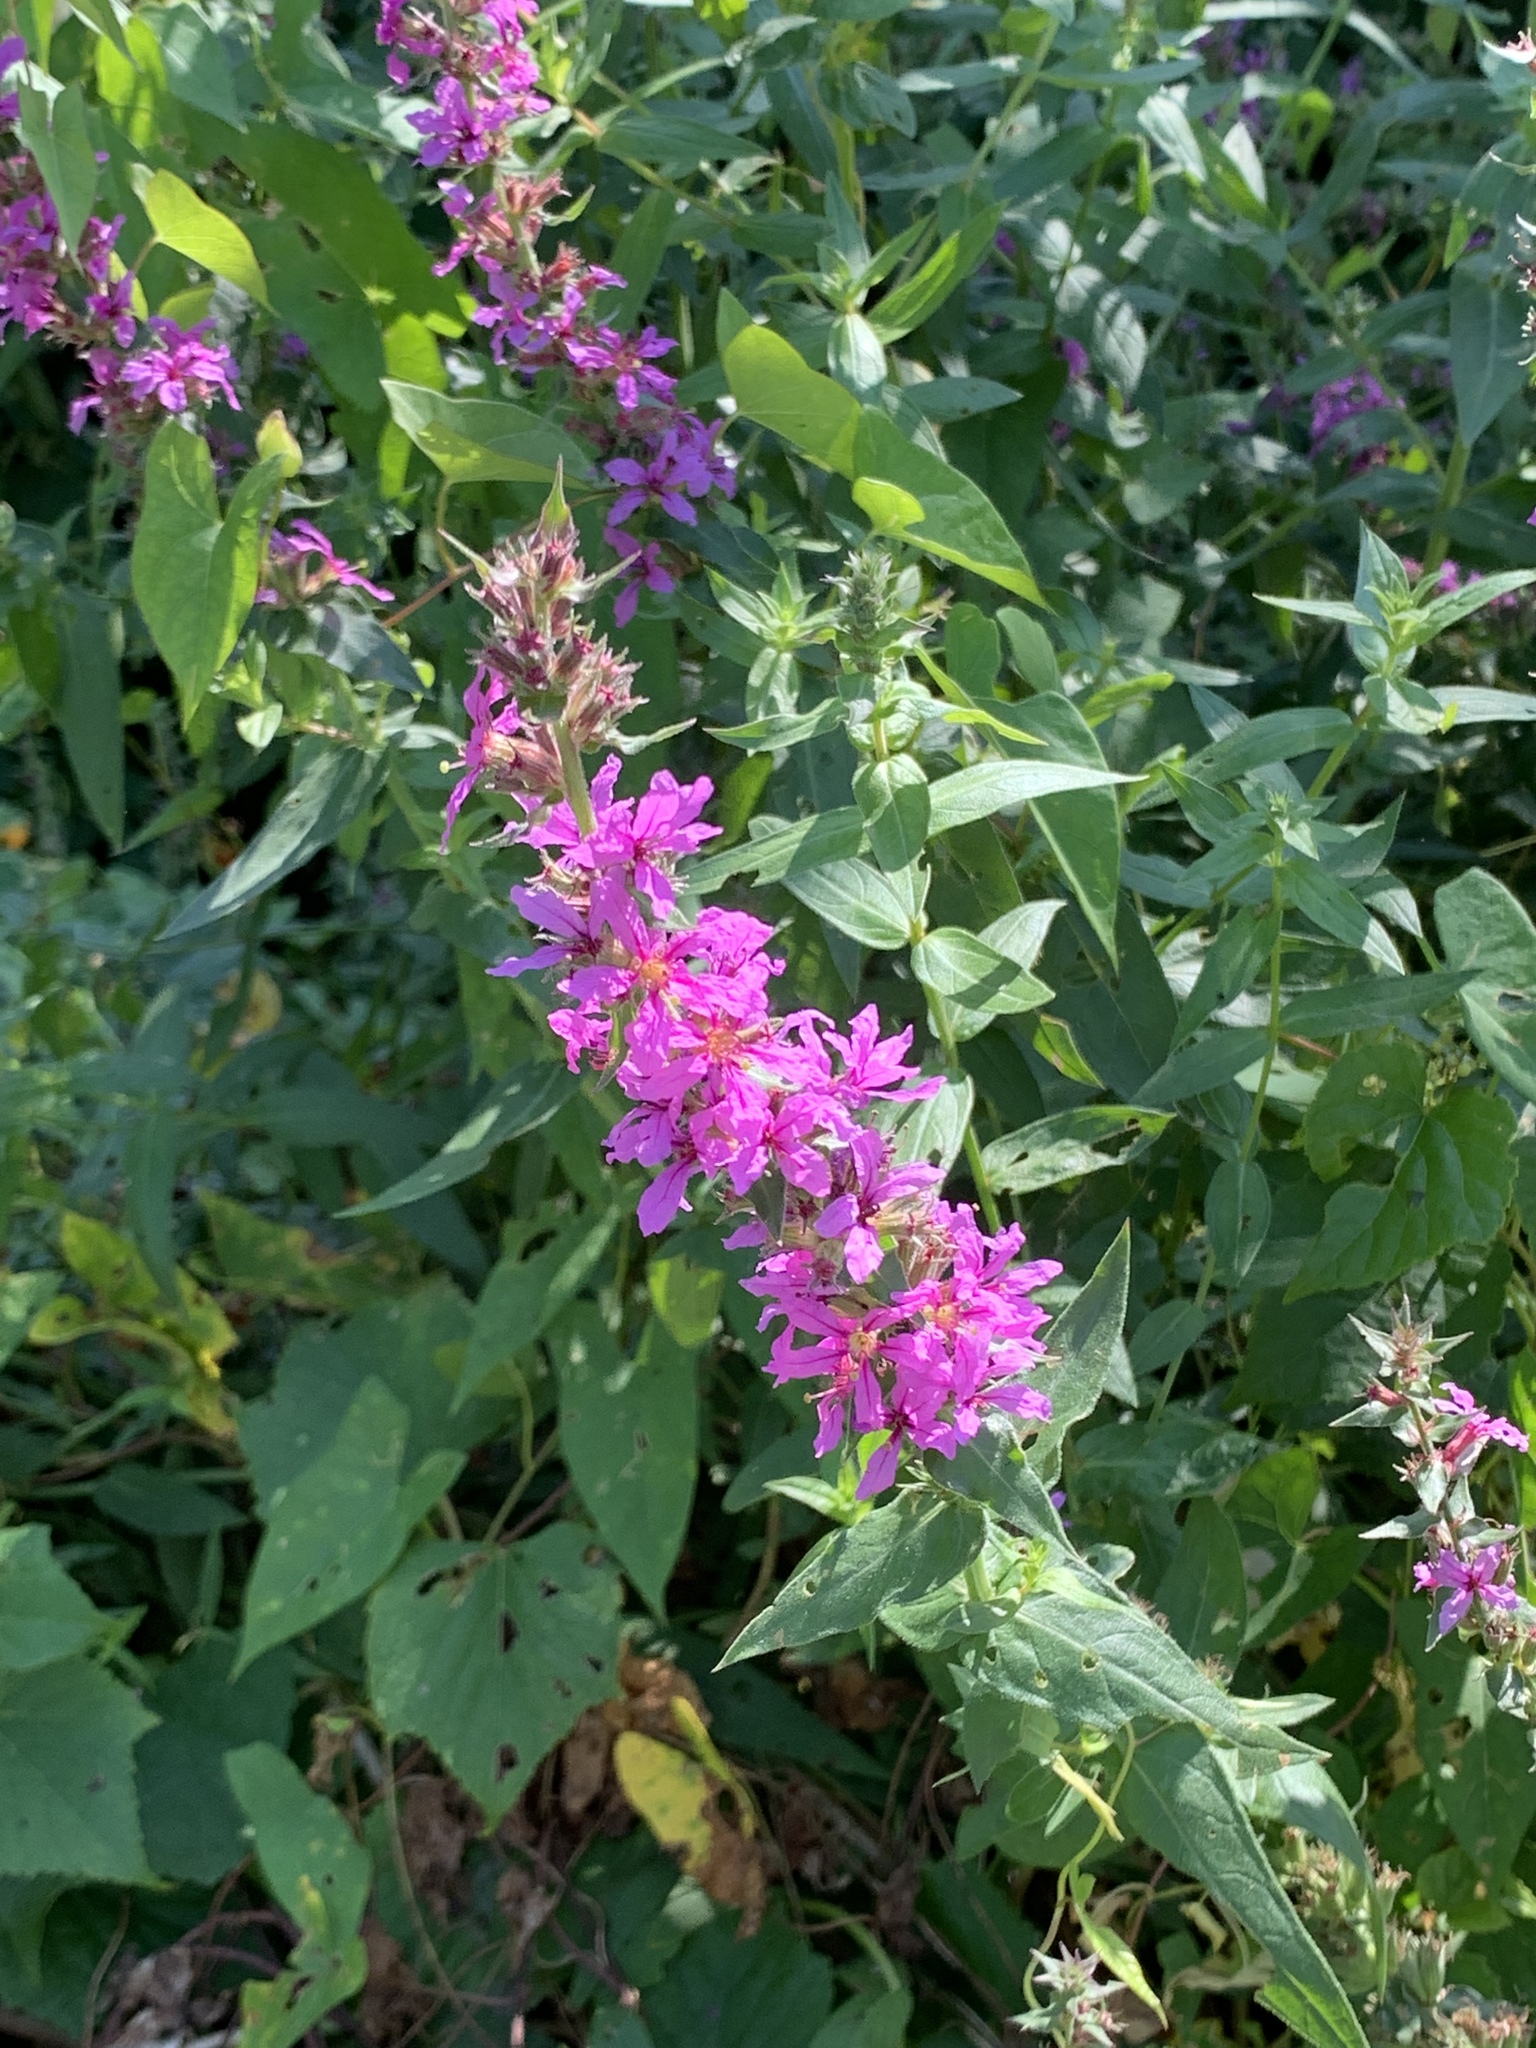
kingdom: Plantae
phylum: Tracheophyta
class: Magnoliopsida
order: Myrtales
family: Lythraceae
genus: Lythrum
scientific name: Lythrum salicaria
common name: Purple loosestrife
